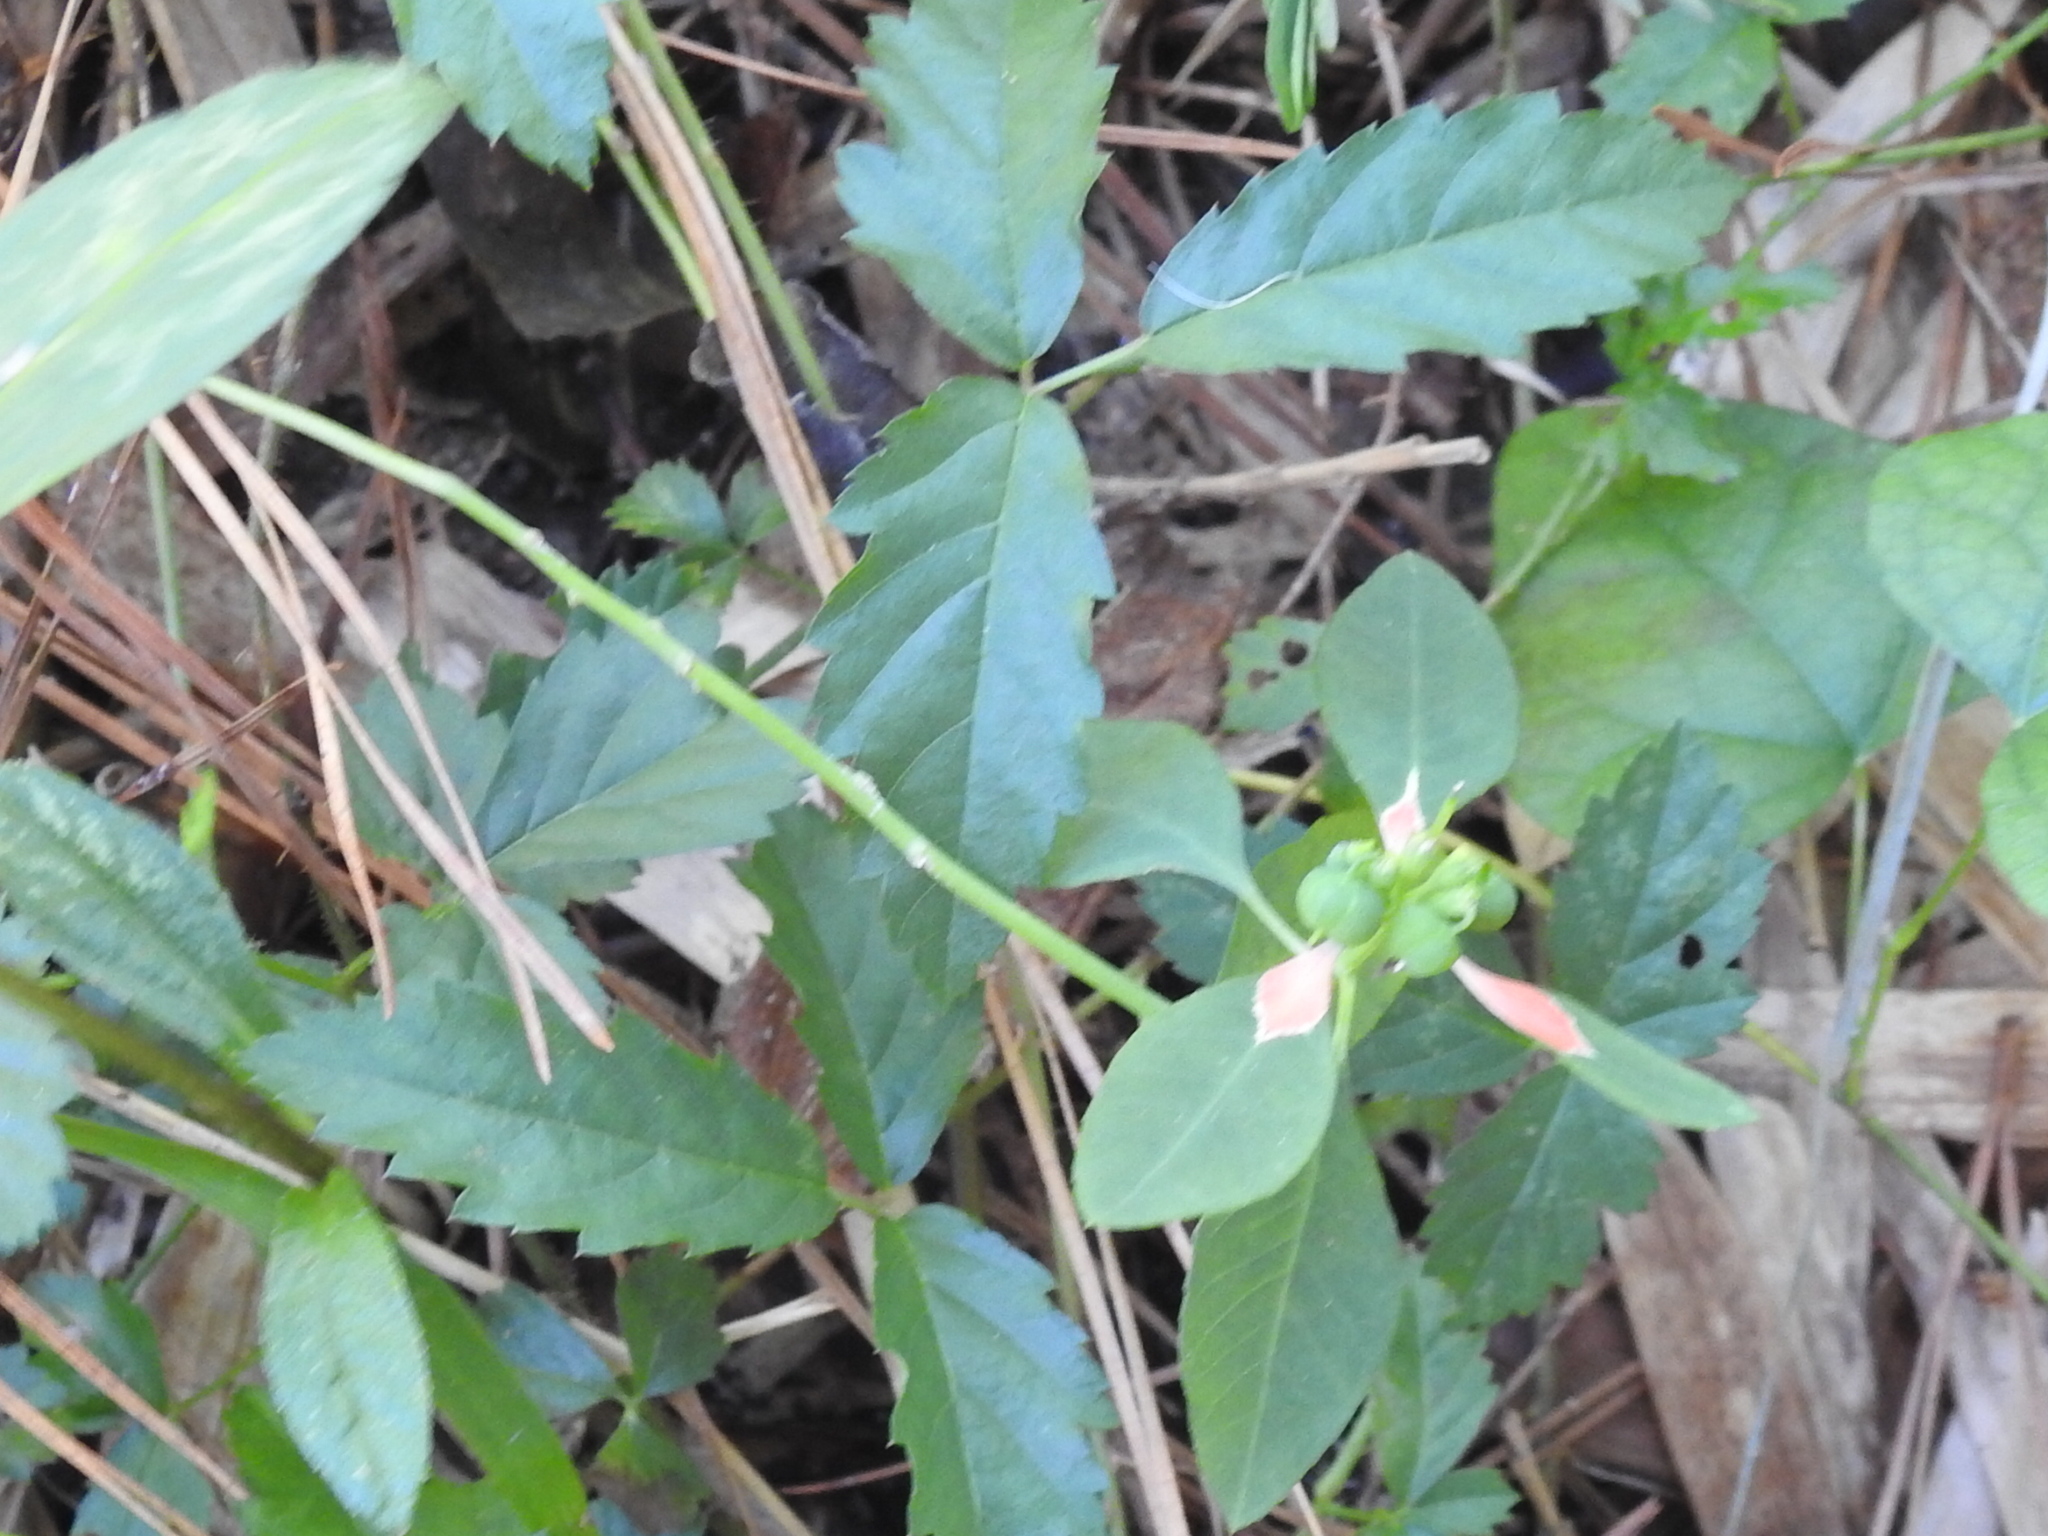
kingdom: Plantae
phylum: Tracheophyta
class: Magnoliopsida
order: Malpighiales
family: Euphorbiaceae
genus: Euphorbia
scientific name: Euphorbia heterophylla
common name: Mexican fireplant
